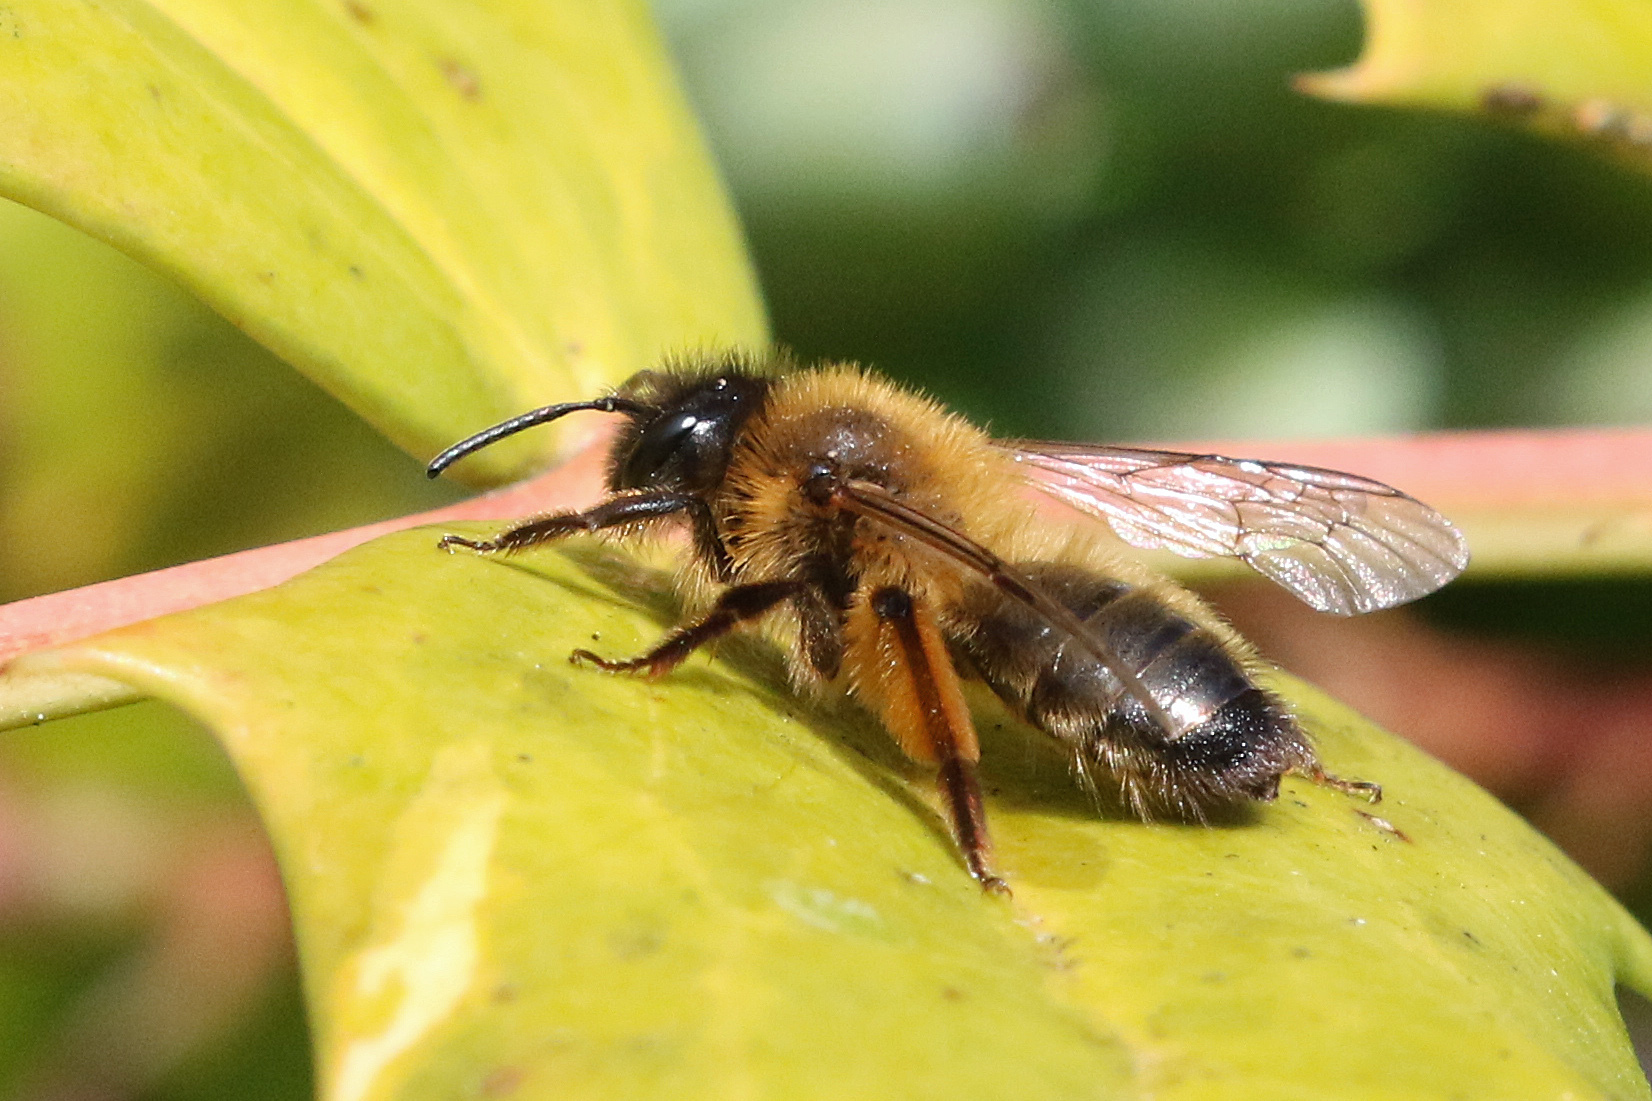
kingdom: Animalia
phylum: Arthropoda
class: Insecta
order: Hymenoptera
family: Andrenidae
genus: Andrena
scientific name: Andrena nigroaenea
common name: Buffish mining bee
